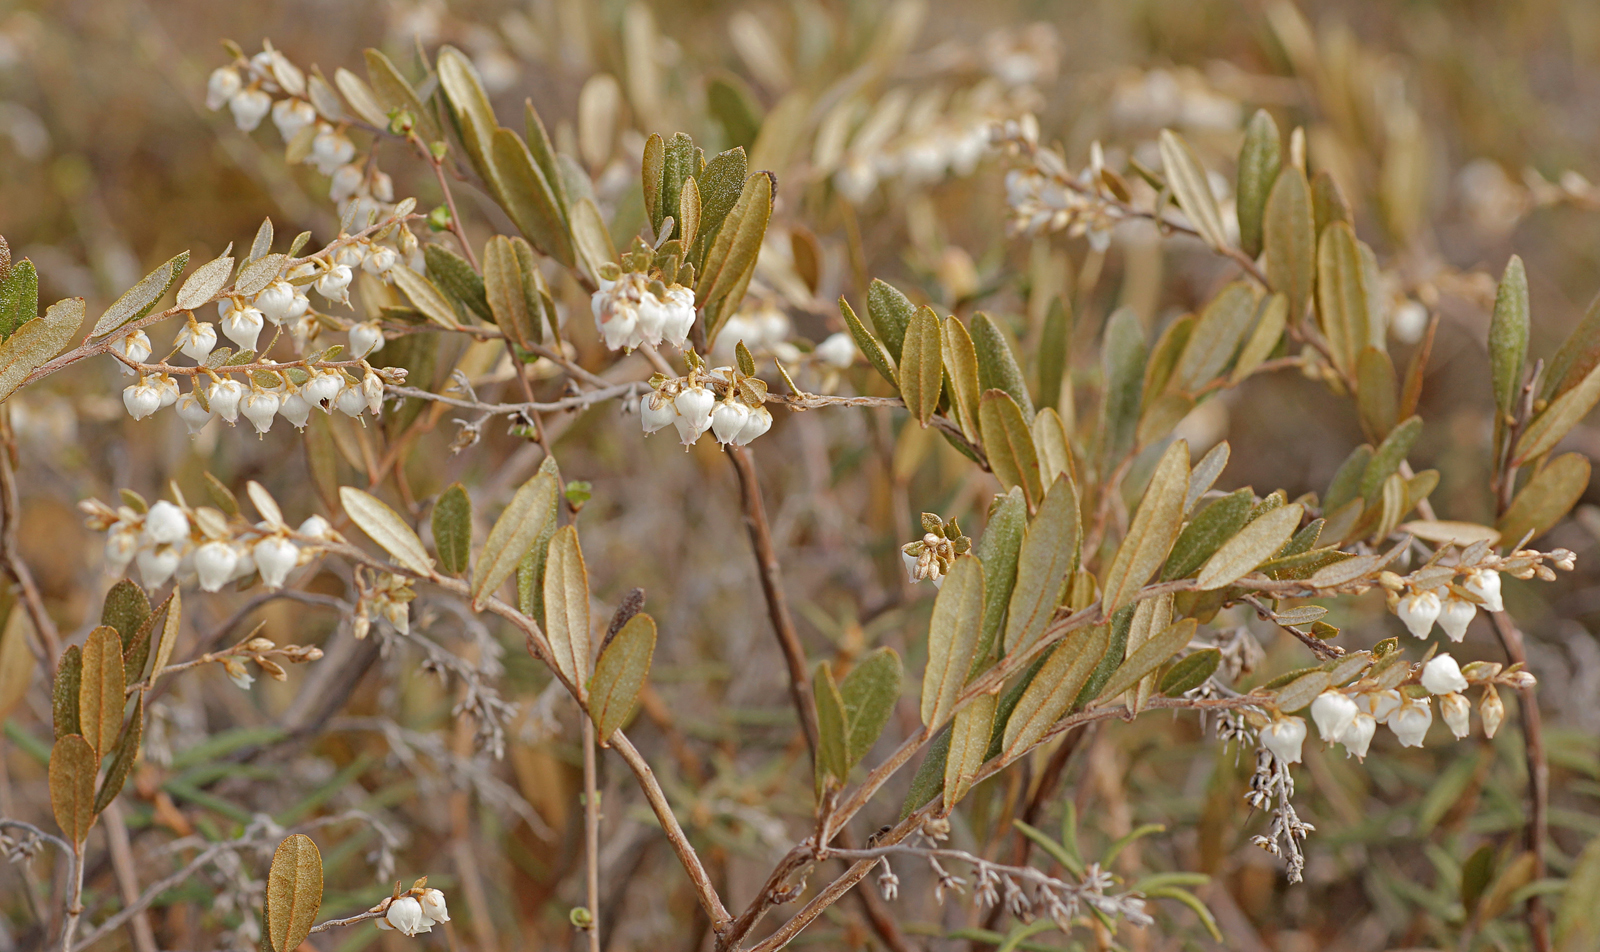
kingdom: Plantae
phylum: Tracheophyta
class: Magnoliopsida
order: Ericales
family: Ericaceae
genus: Chamaedaphne
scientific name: Chamaedaphne calyculata
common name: Leatherleaf
